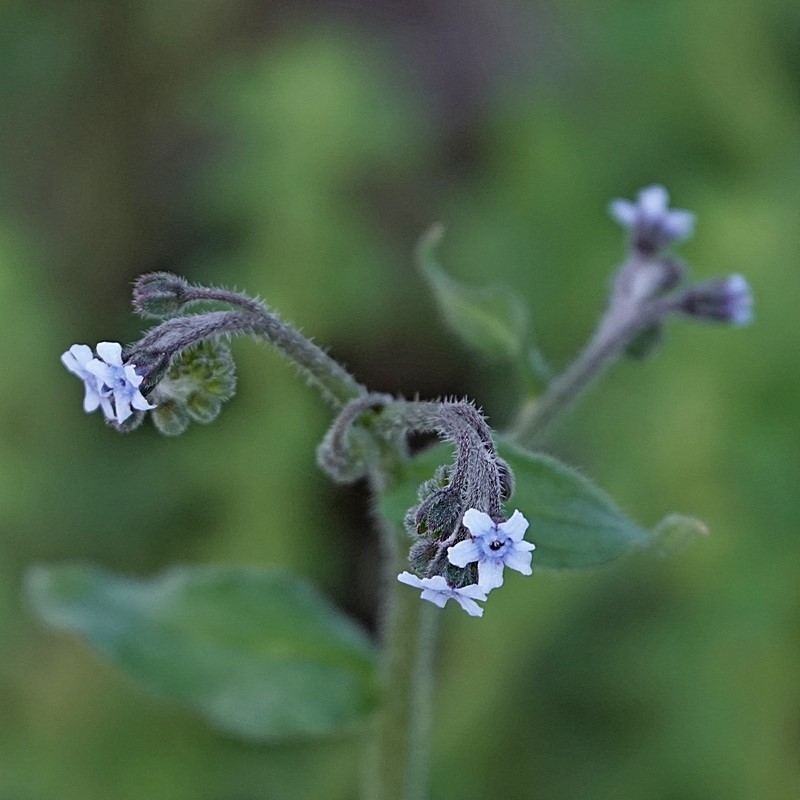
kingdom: Plantae
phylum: Tracheophyta
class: Magnoliopsida
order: Boraginales
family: Boraginaceae
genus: Cynoglossum
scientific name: Cynoglossum australe
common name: Australian hound's-tongue
